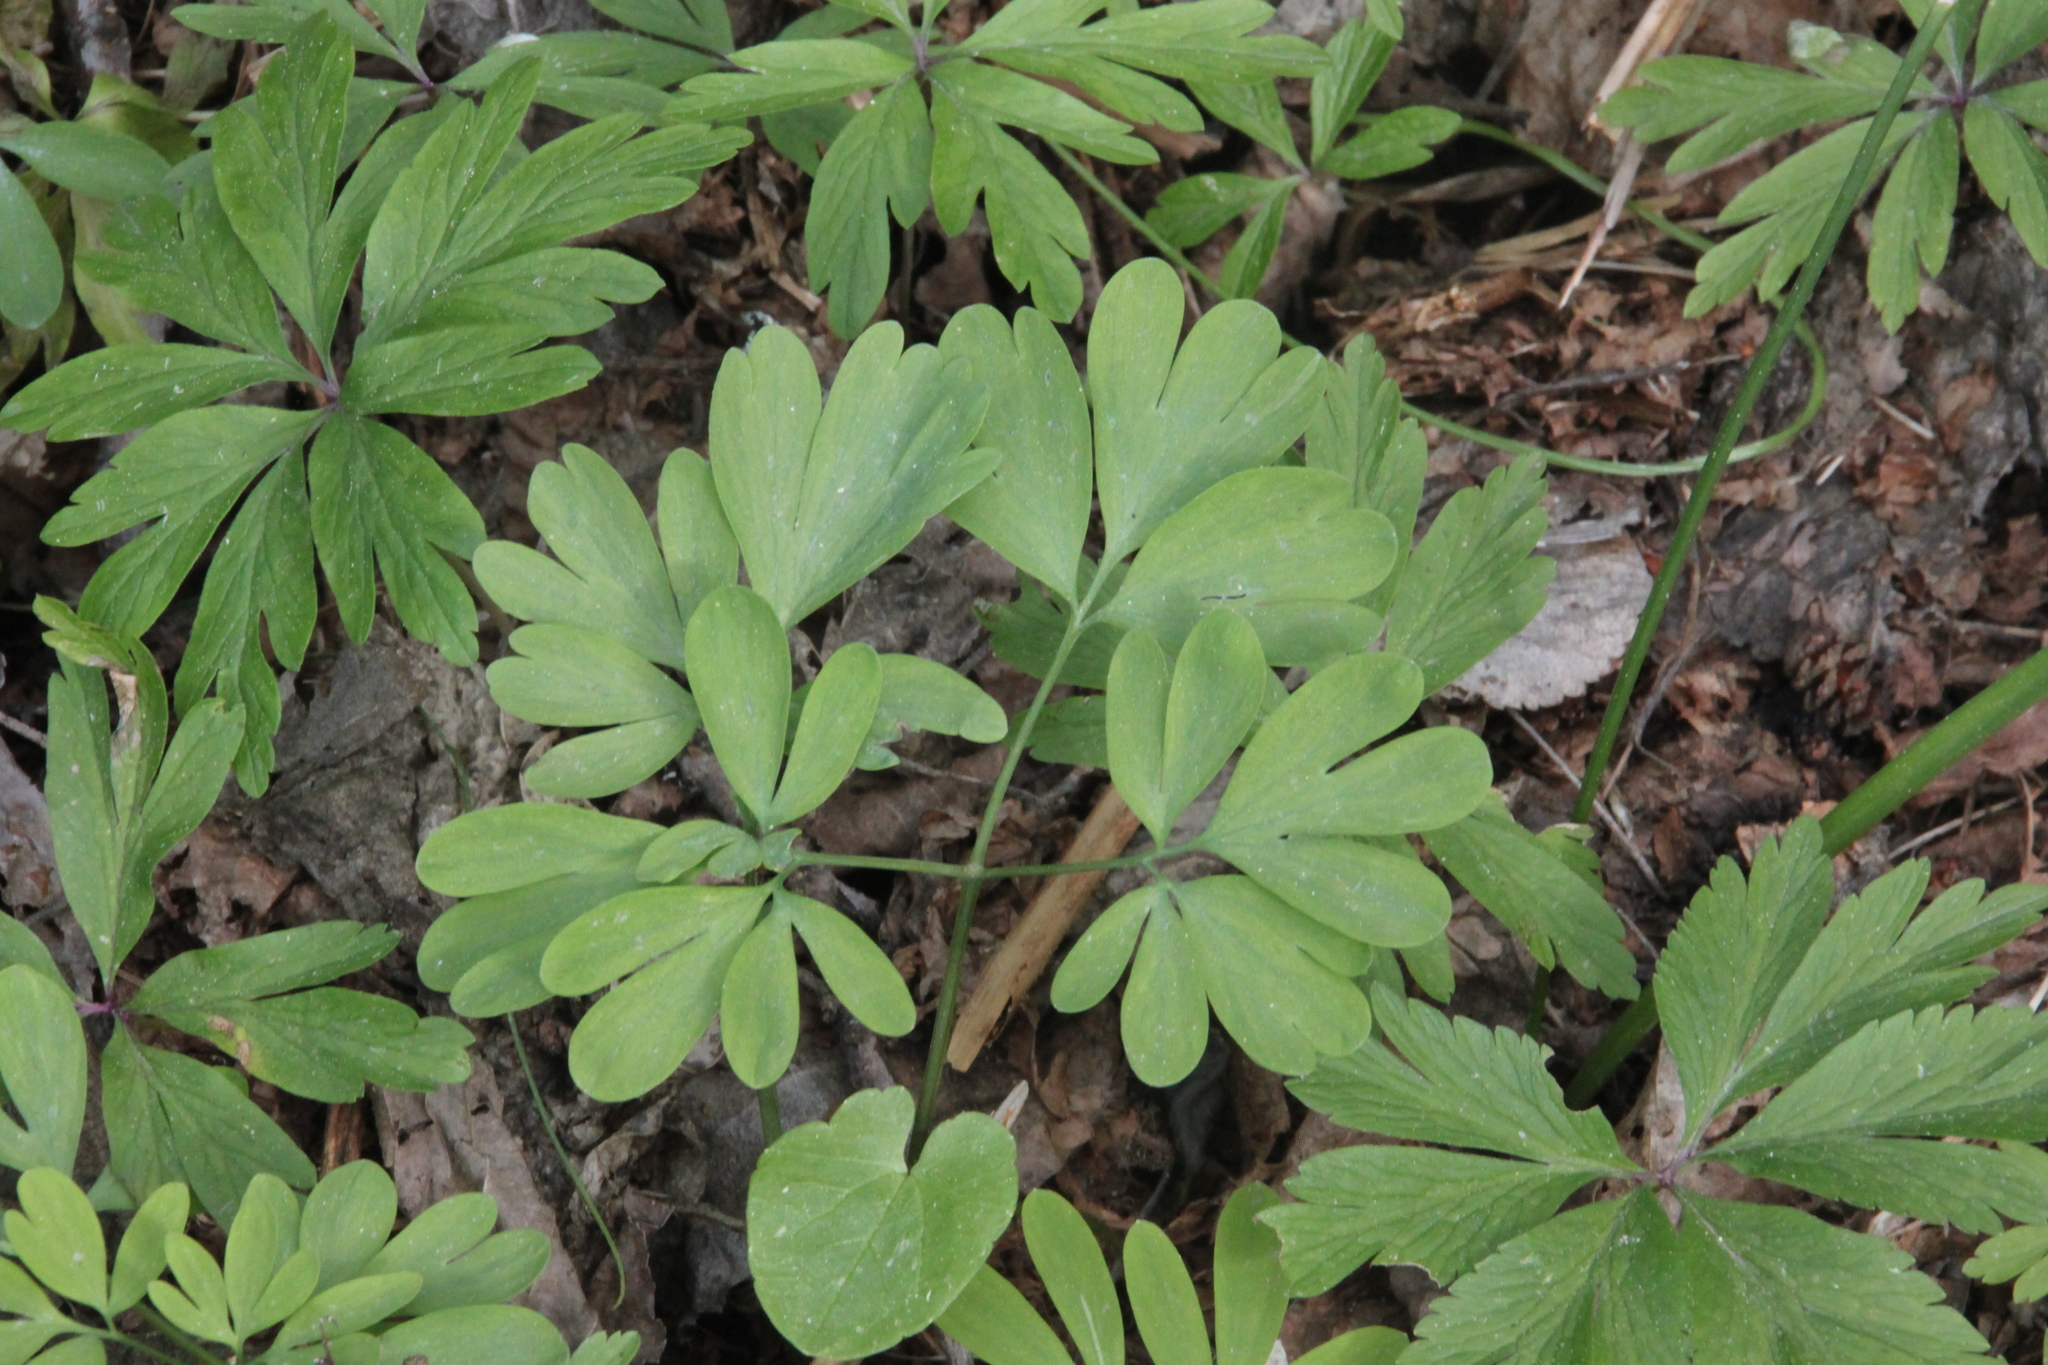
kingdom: Plantae
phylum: Tracheophyta
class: Magnoliopsida
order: Ranunculales
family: Papaveraceae
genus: Corydalis
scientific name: Corydalis solida
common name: Bird-in-a-bush
